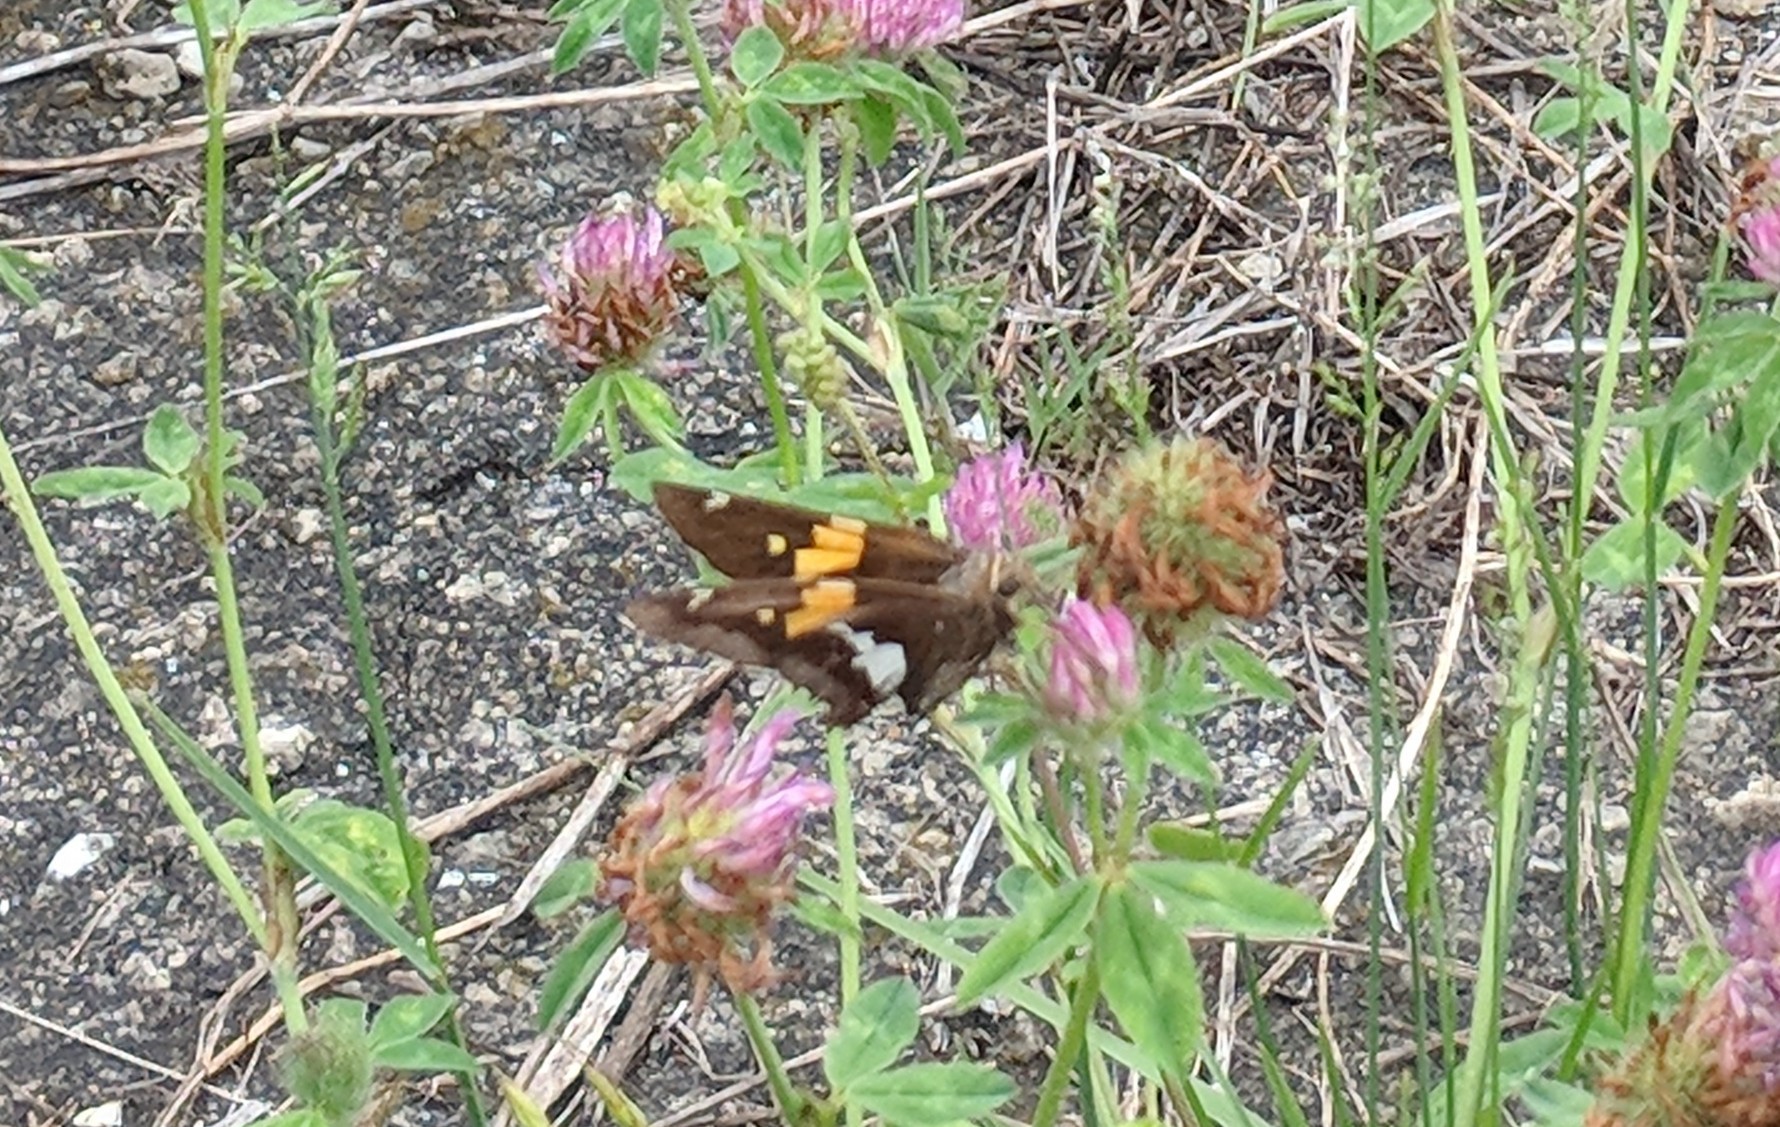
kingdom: Animalia
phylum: Arthropoda
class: Insecta
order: Lepidoptera
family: Hesperiidae
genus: Epargyreus
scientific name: Epargyreus clarus
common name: Silver-spotted skipper
